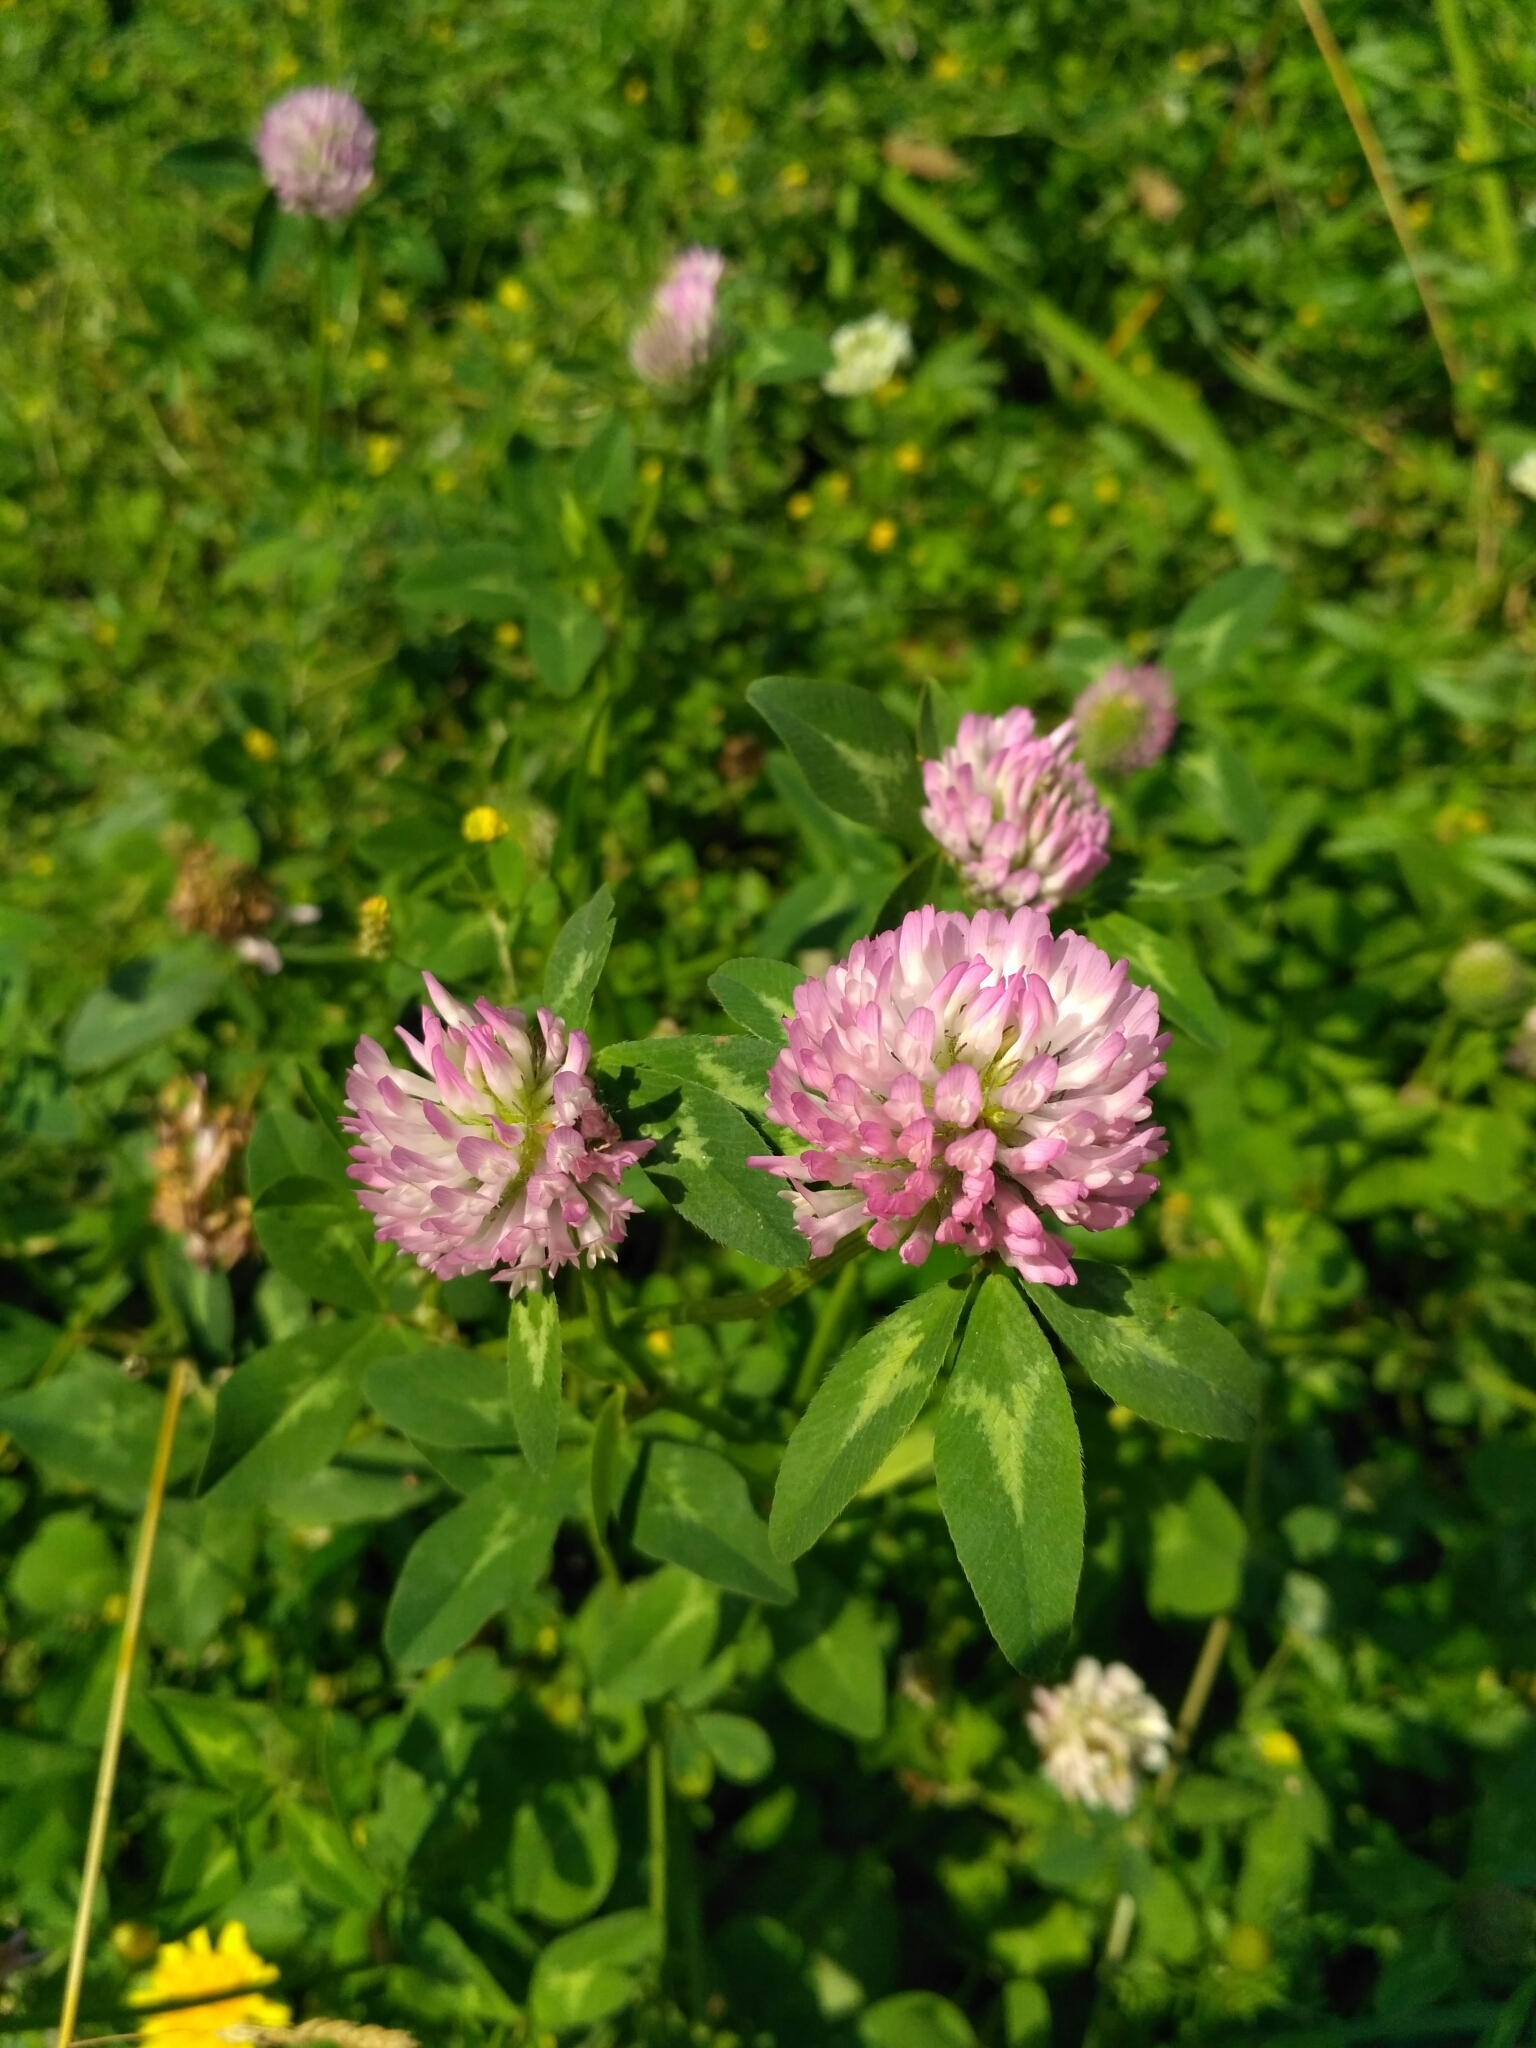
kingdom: Plantae
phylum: Tracheophyta
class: Magnoliopsida
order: Fabales
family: Fabaceae
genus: Trifolium
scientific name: Trifolium pratense
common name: Red clover
